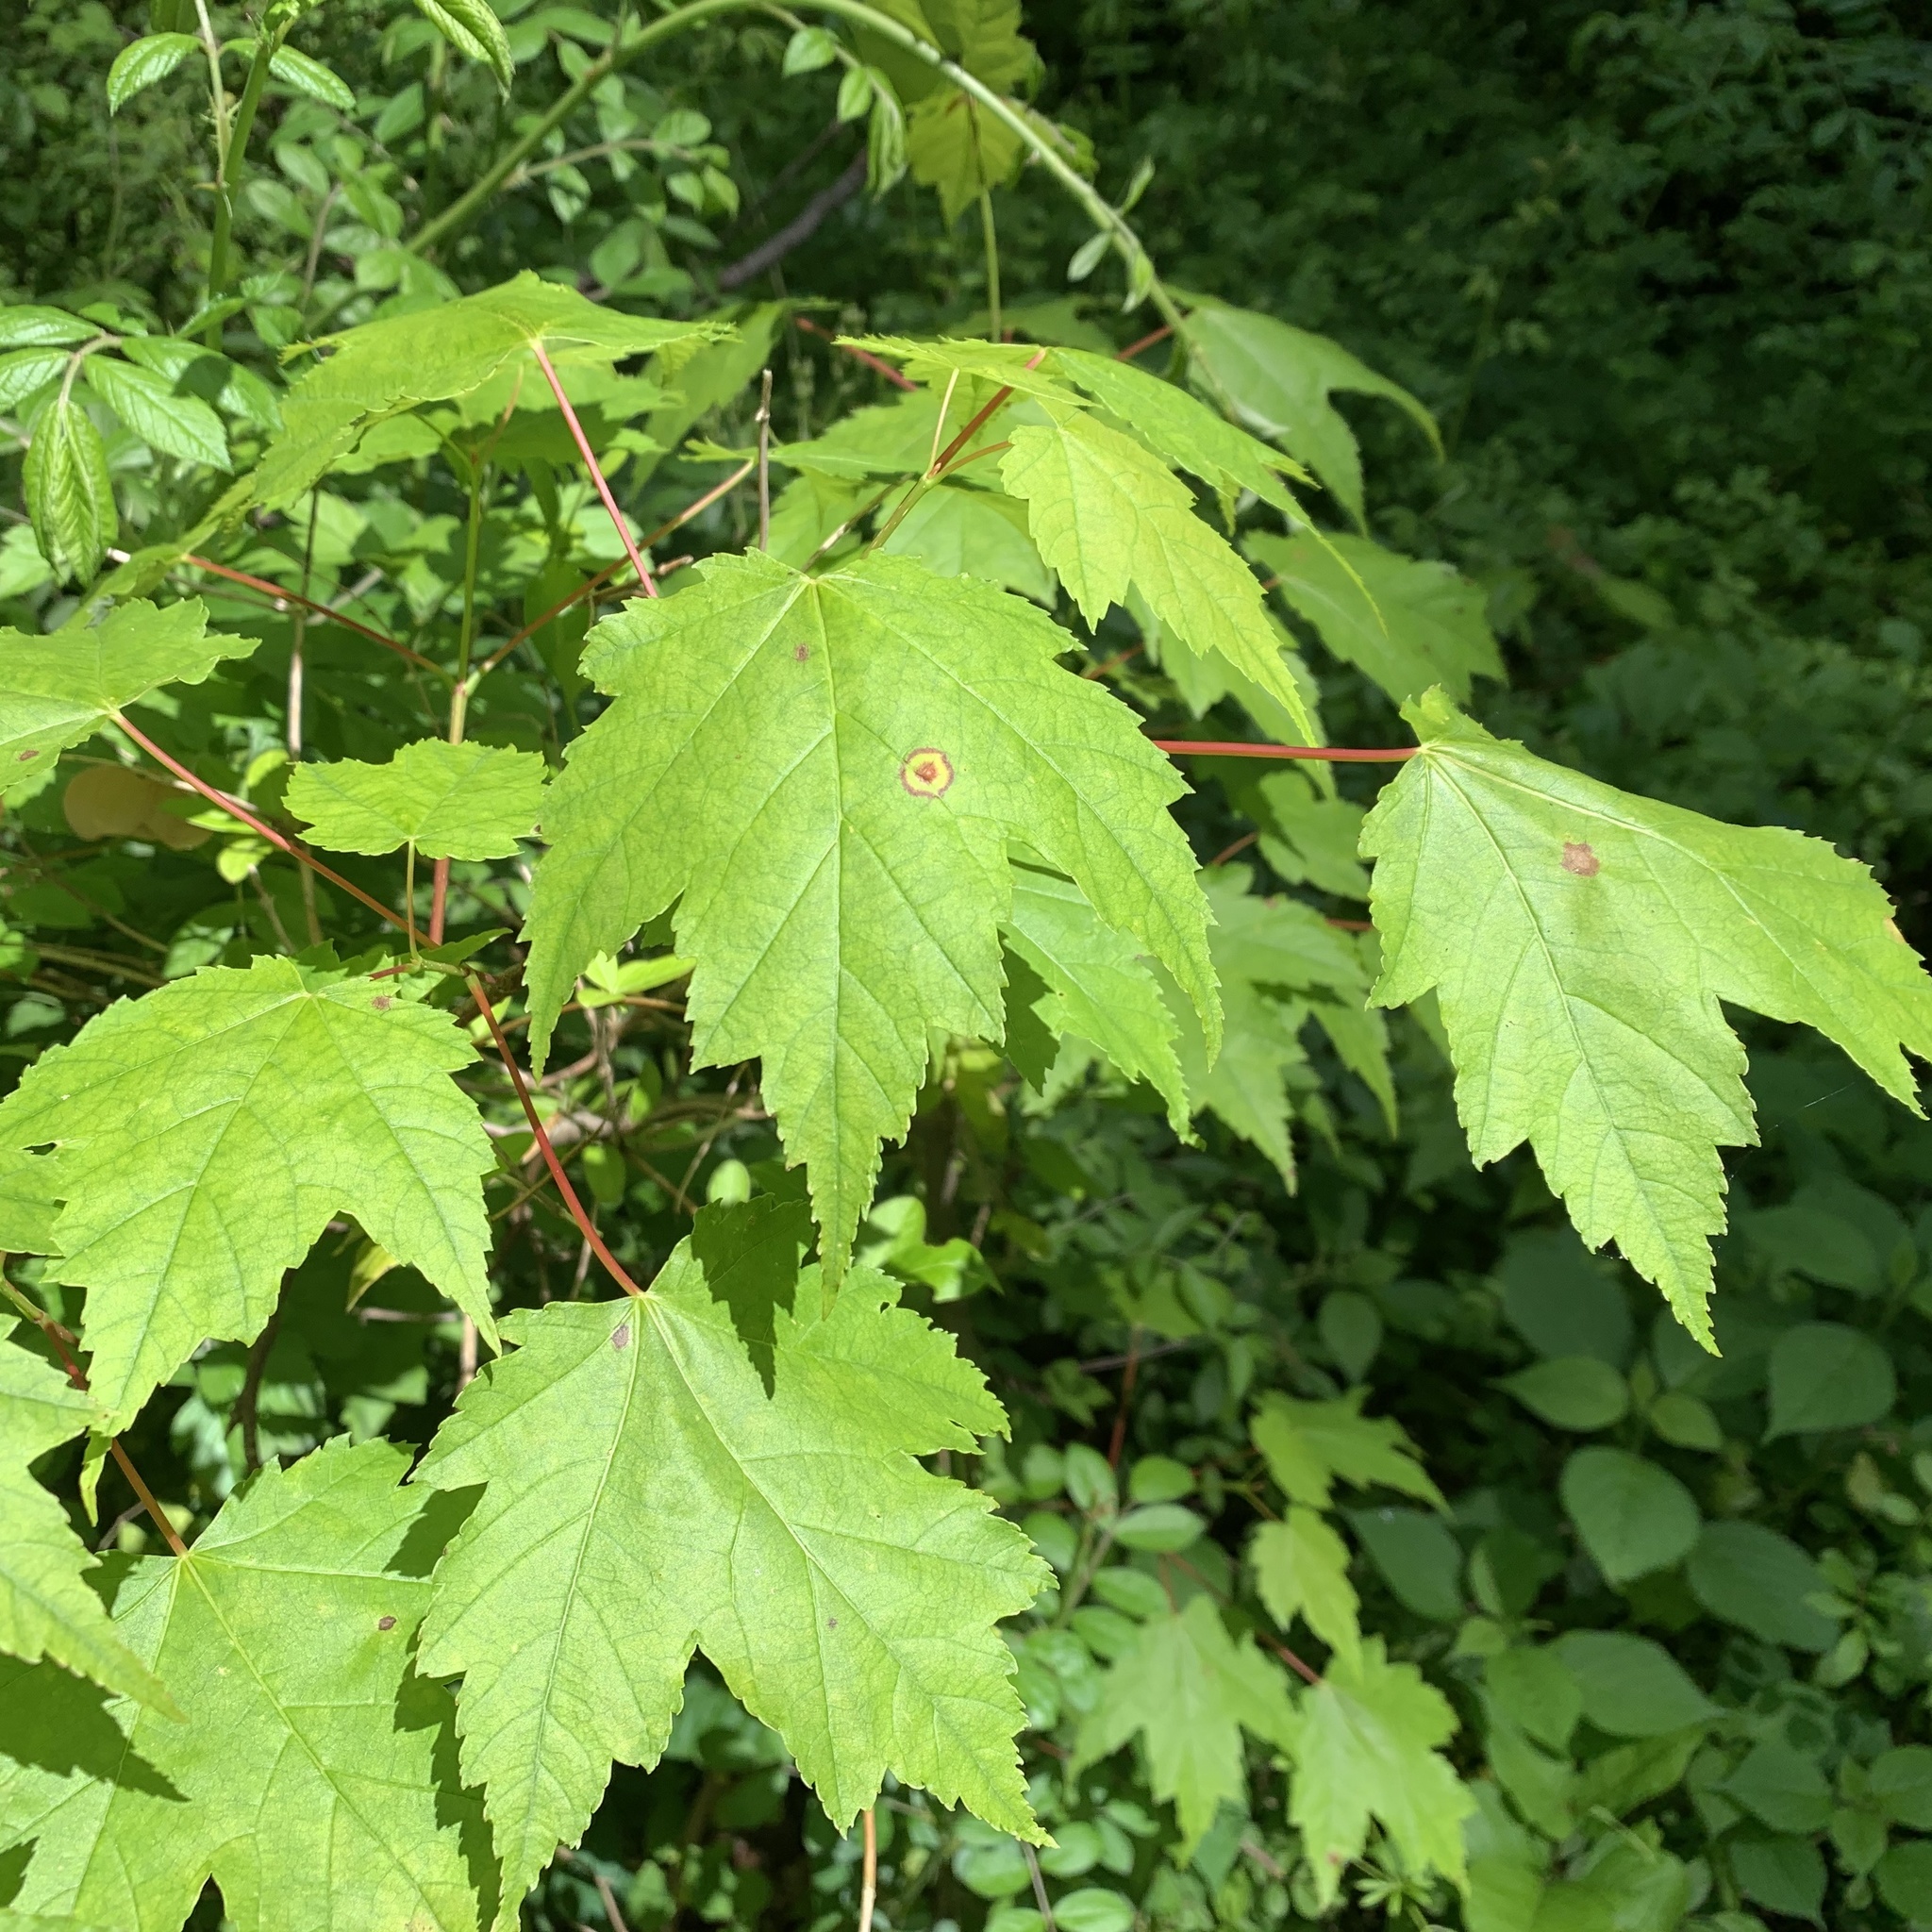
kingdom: Animalia
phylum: Arthropoda
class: Insecta
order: Diptera
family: Cecidomyiidae
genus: Acericecis
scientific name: Acericecis ocellaris
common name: Ocellate gall midge
